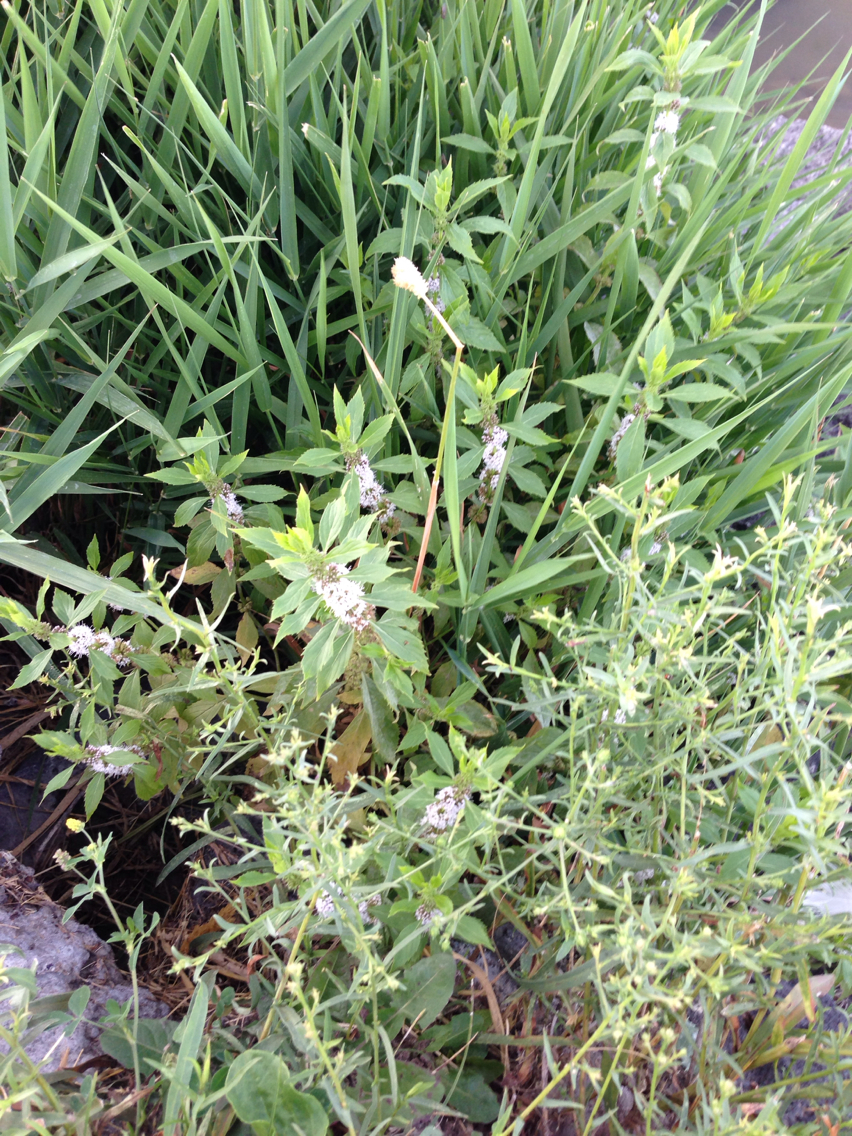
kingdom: Plantae
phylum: Tracheophyta
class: Magnoliopsida
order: Lamiales
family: Lamiaceae
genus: Mentha
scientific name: Mentha arvensis
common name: Corn mint
